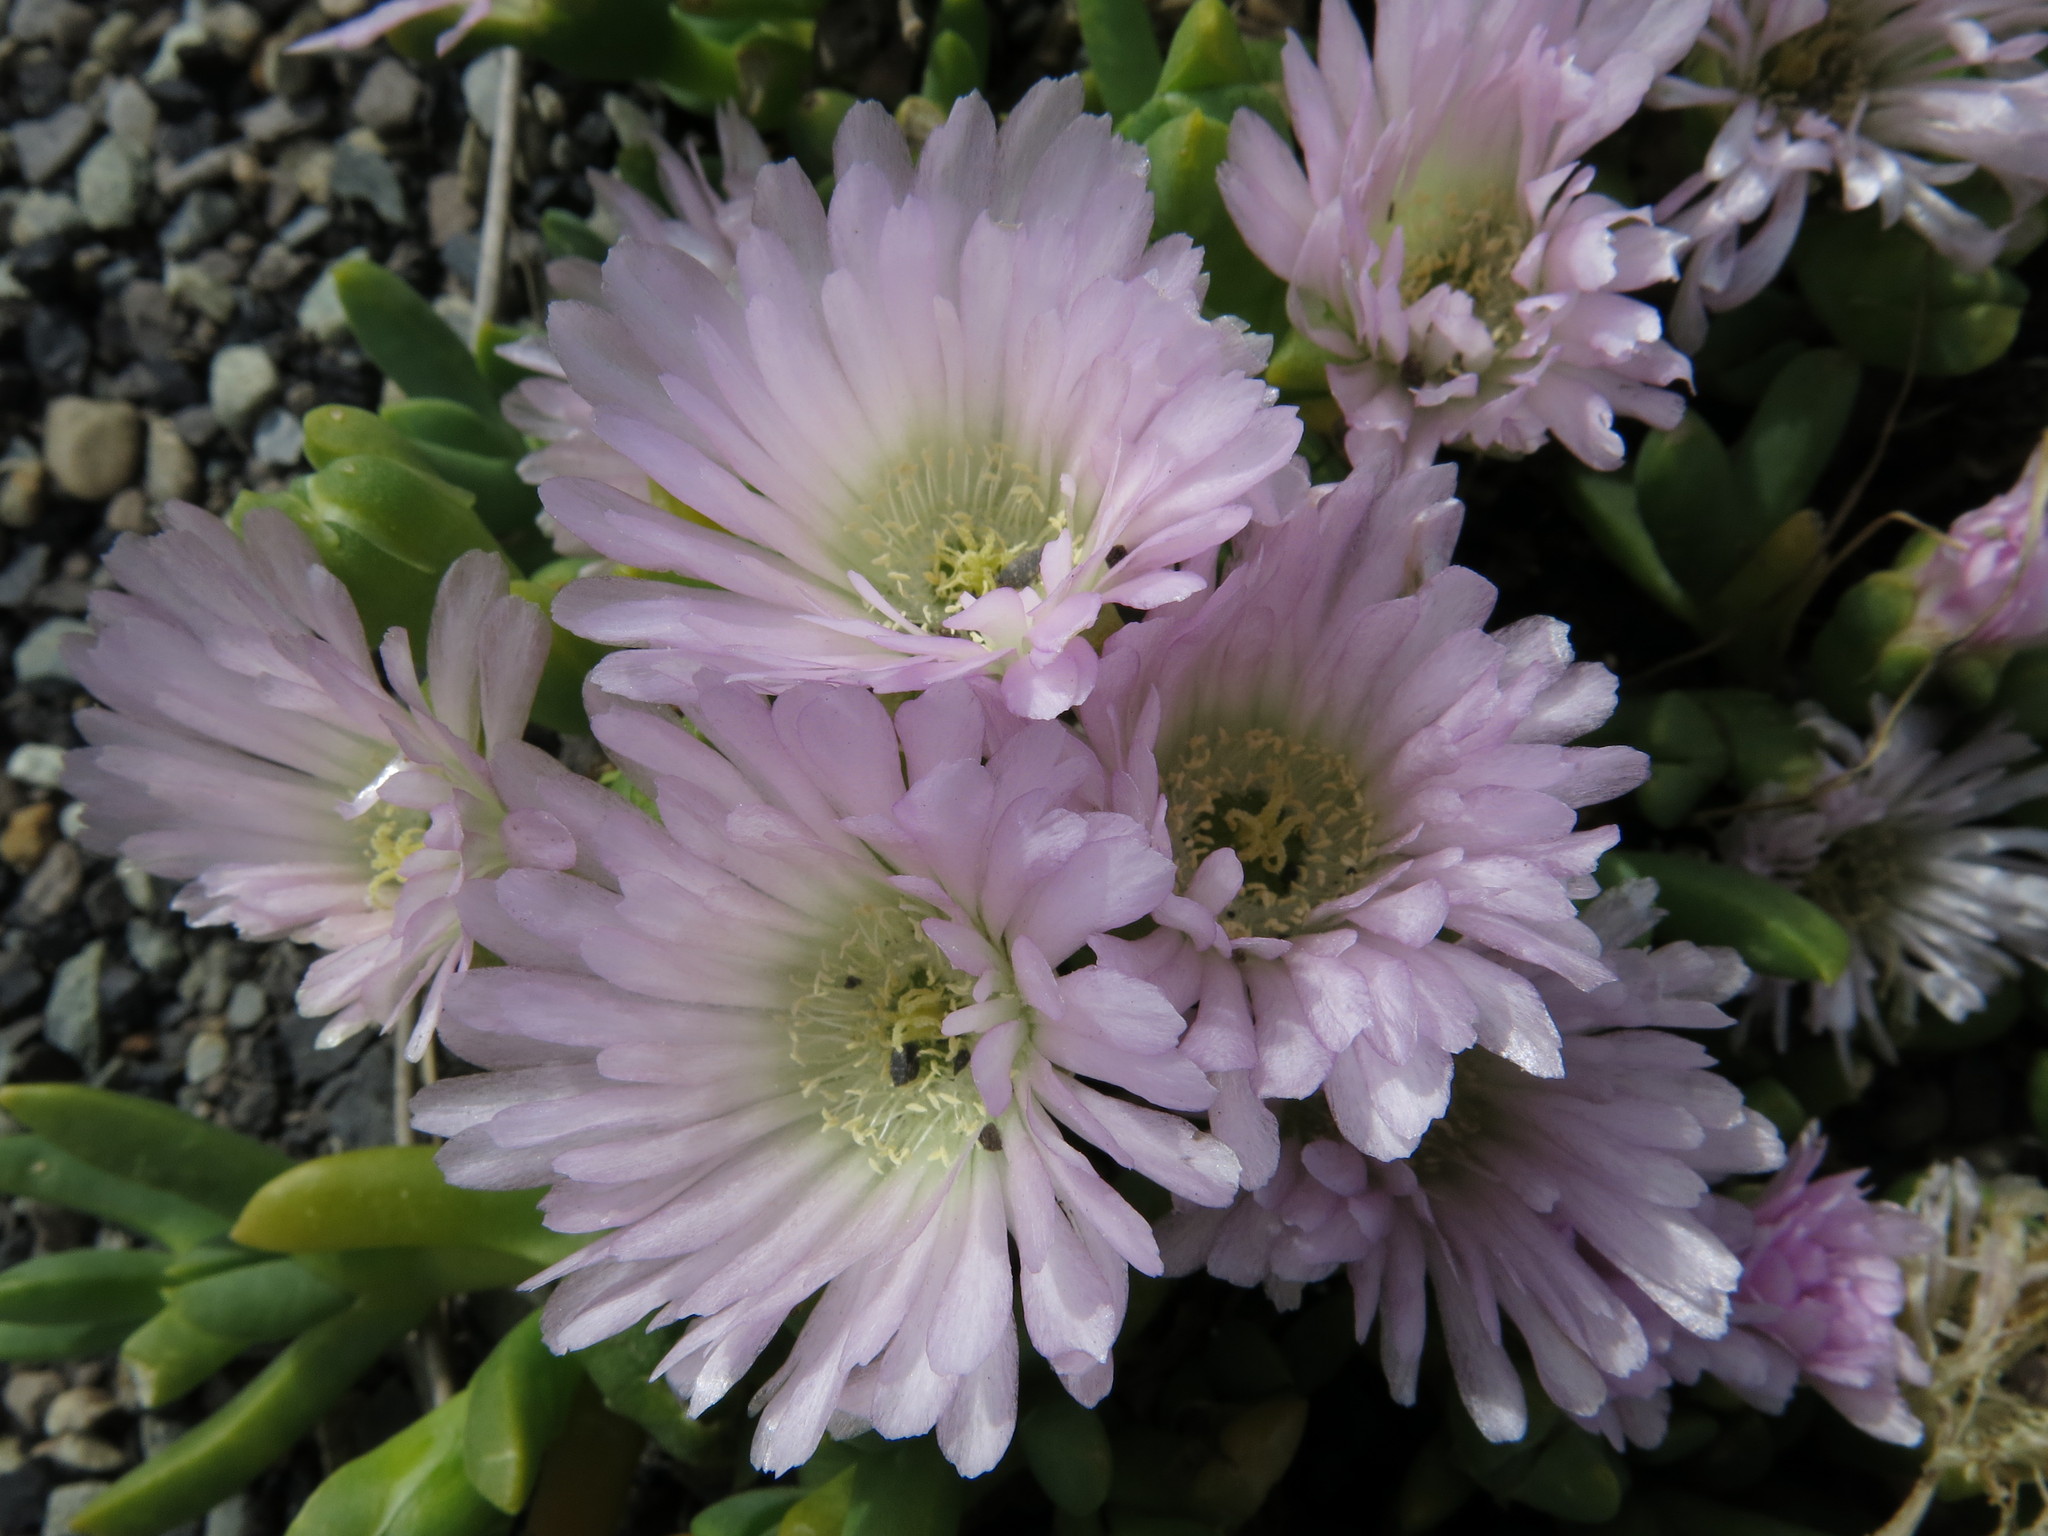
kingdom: Plantae
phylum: Tracheophyta
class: Magnoliopsida
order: Caryophyllales
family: Aizoaceae
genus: Disphyma
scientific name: Disphyma australe
